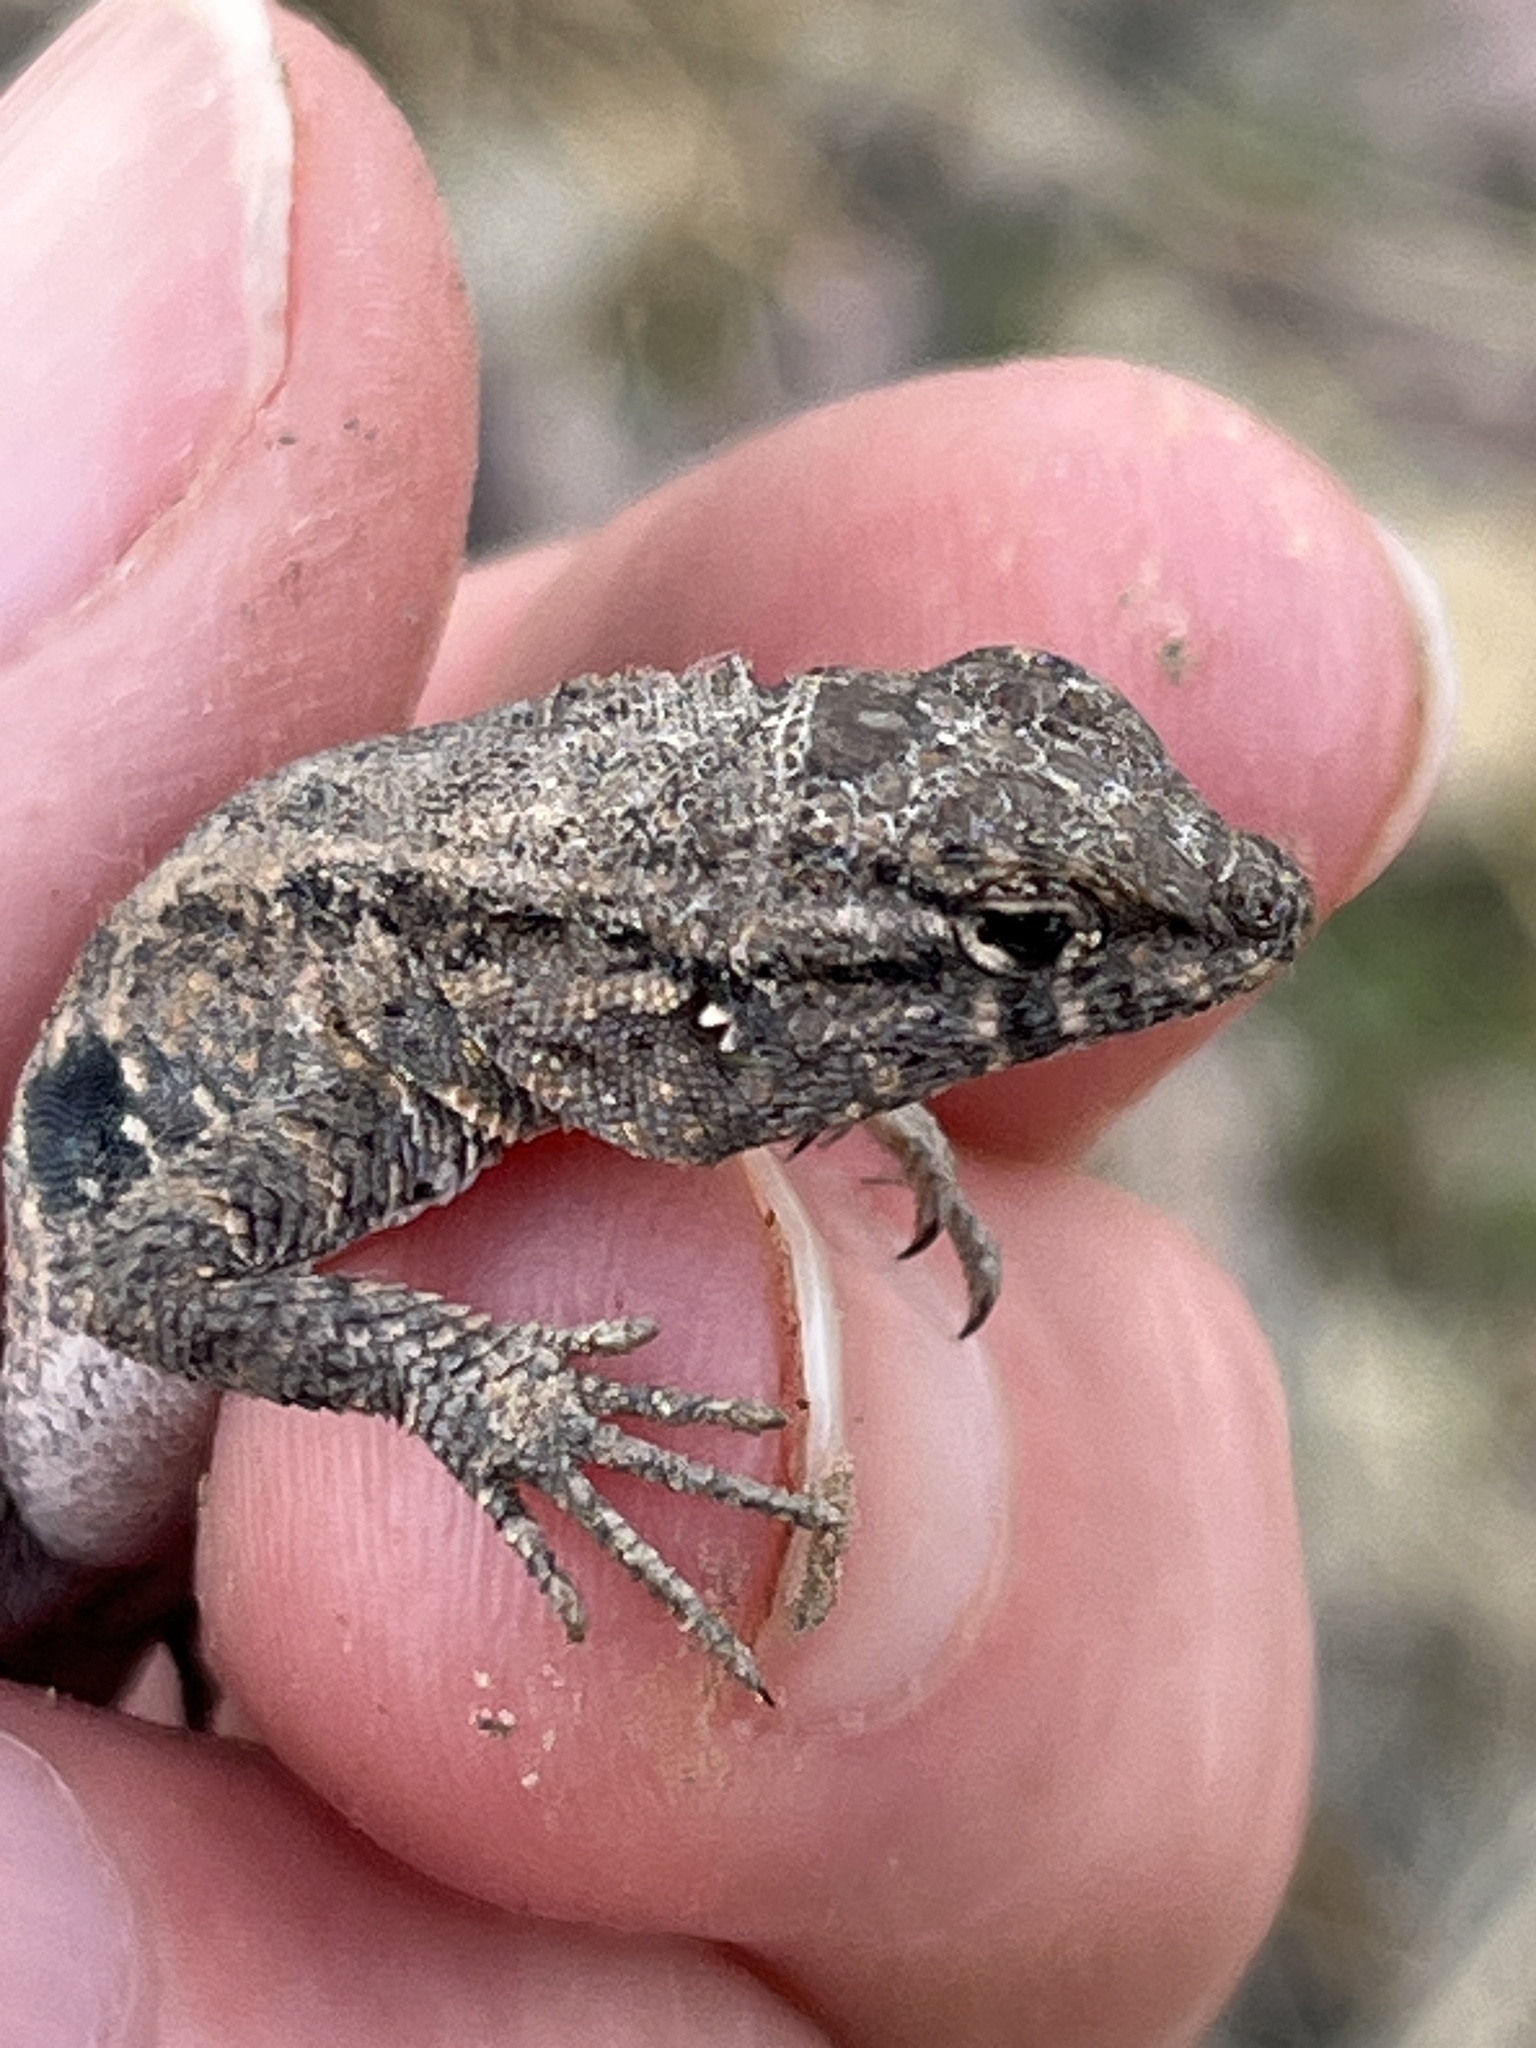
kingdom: Animalia
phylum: Chordata
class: Squamata
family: Phrynosomatidae
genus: Uta
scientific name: Uta stansburiana
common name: Side-blotched lizard
